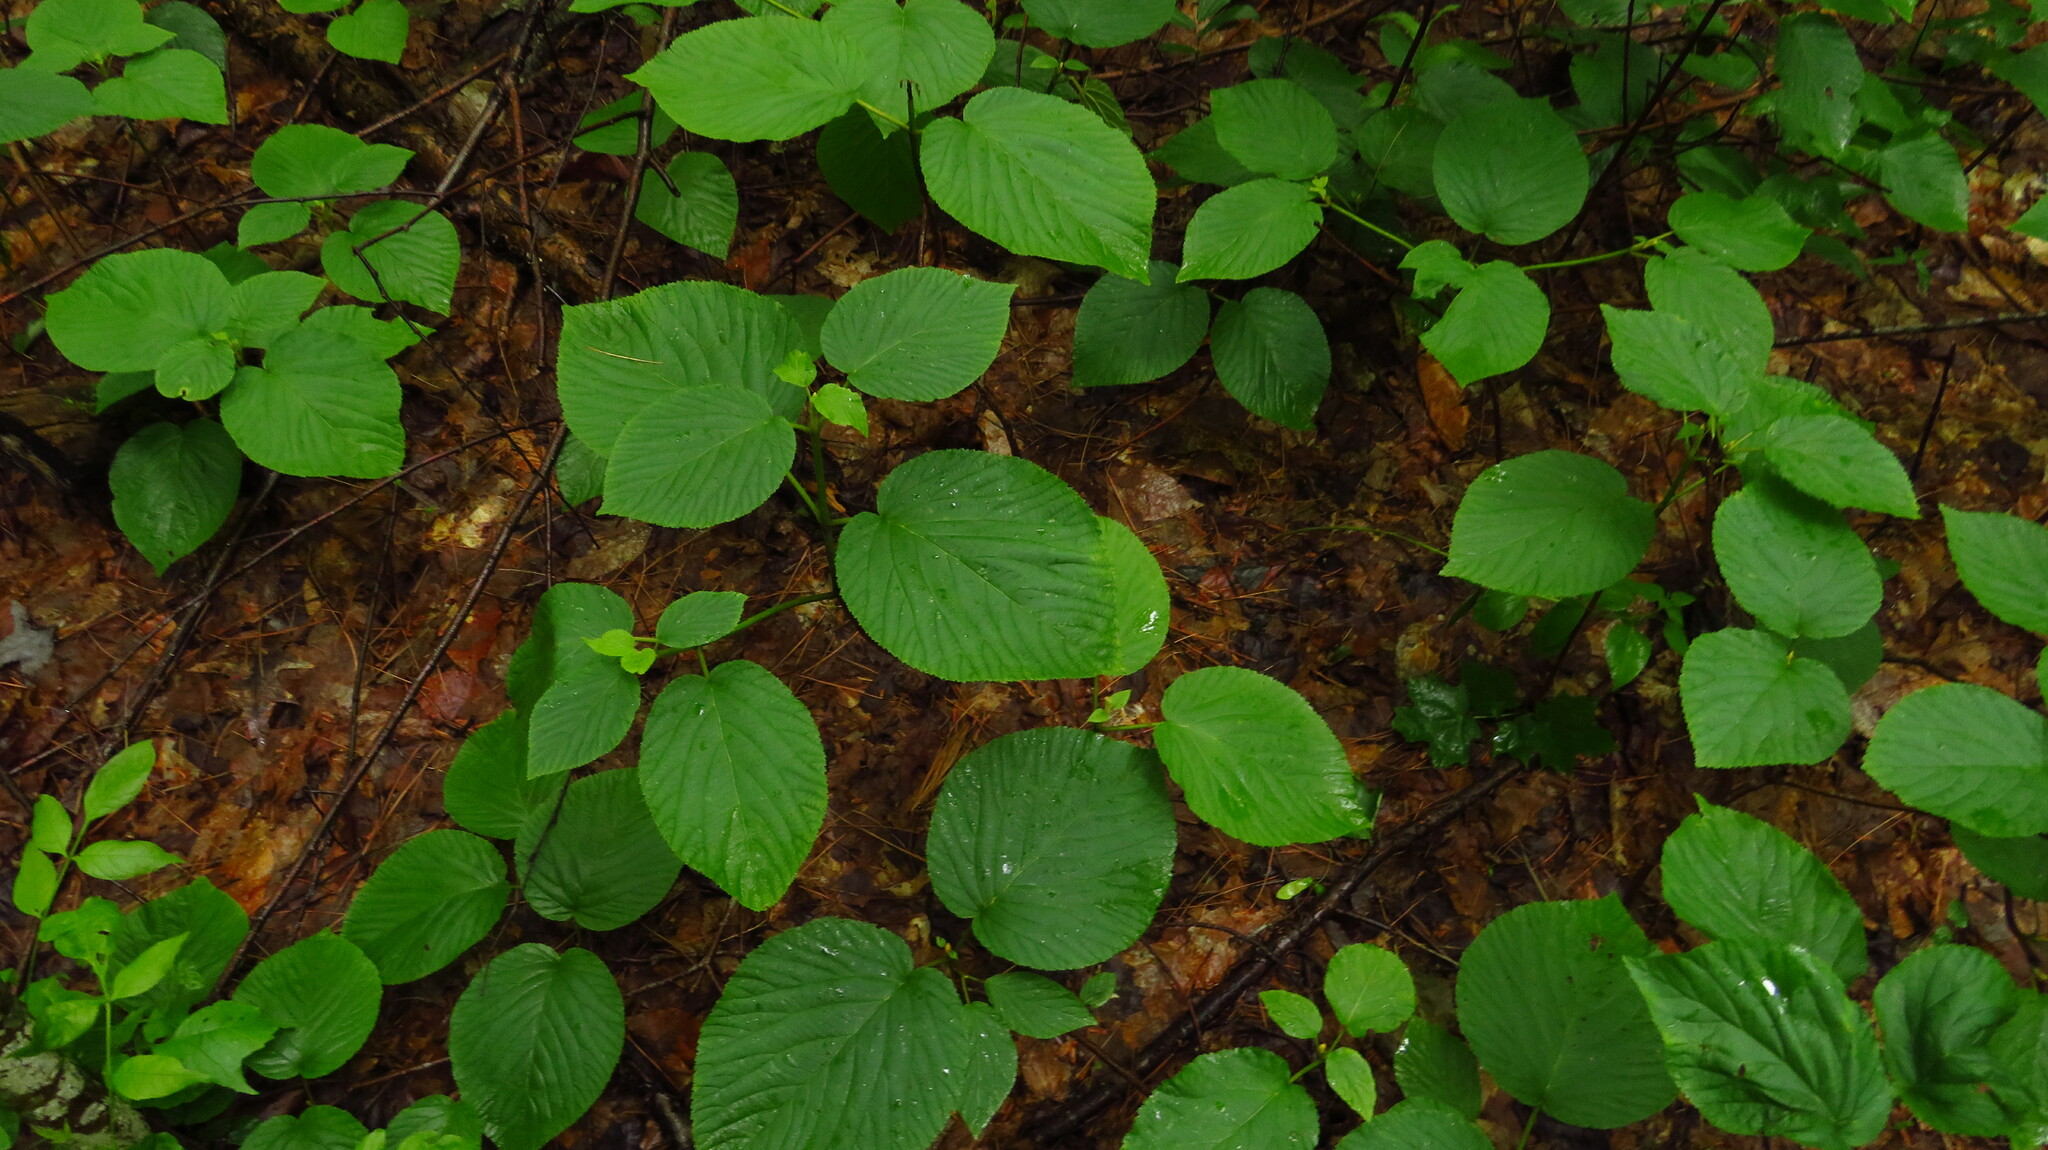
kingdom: Plantae
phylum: Tracheophyta
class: Magnoliopsida
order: Dipsacales
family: Viburnaceae
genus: Viburnum
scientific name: Viburnum lantanoides
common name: Hobblebush
